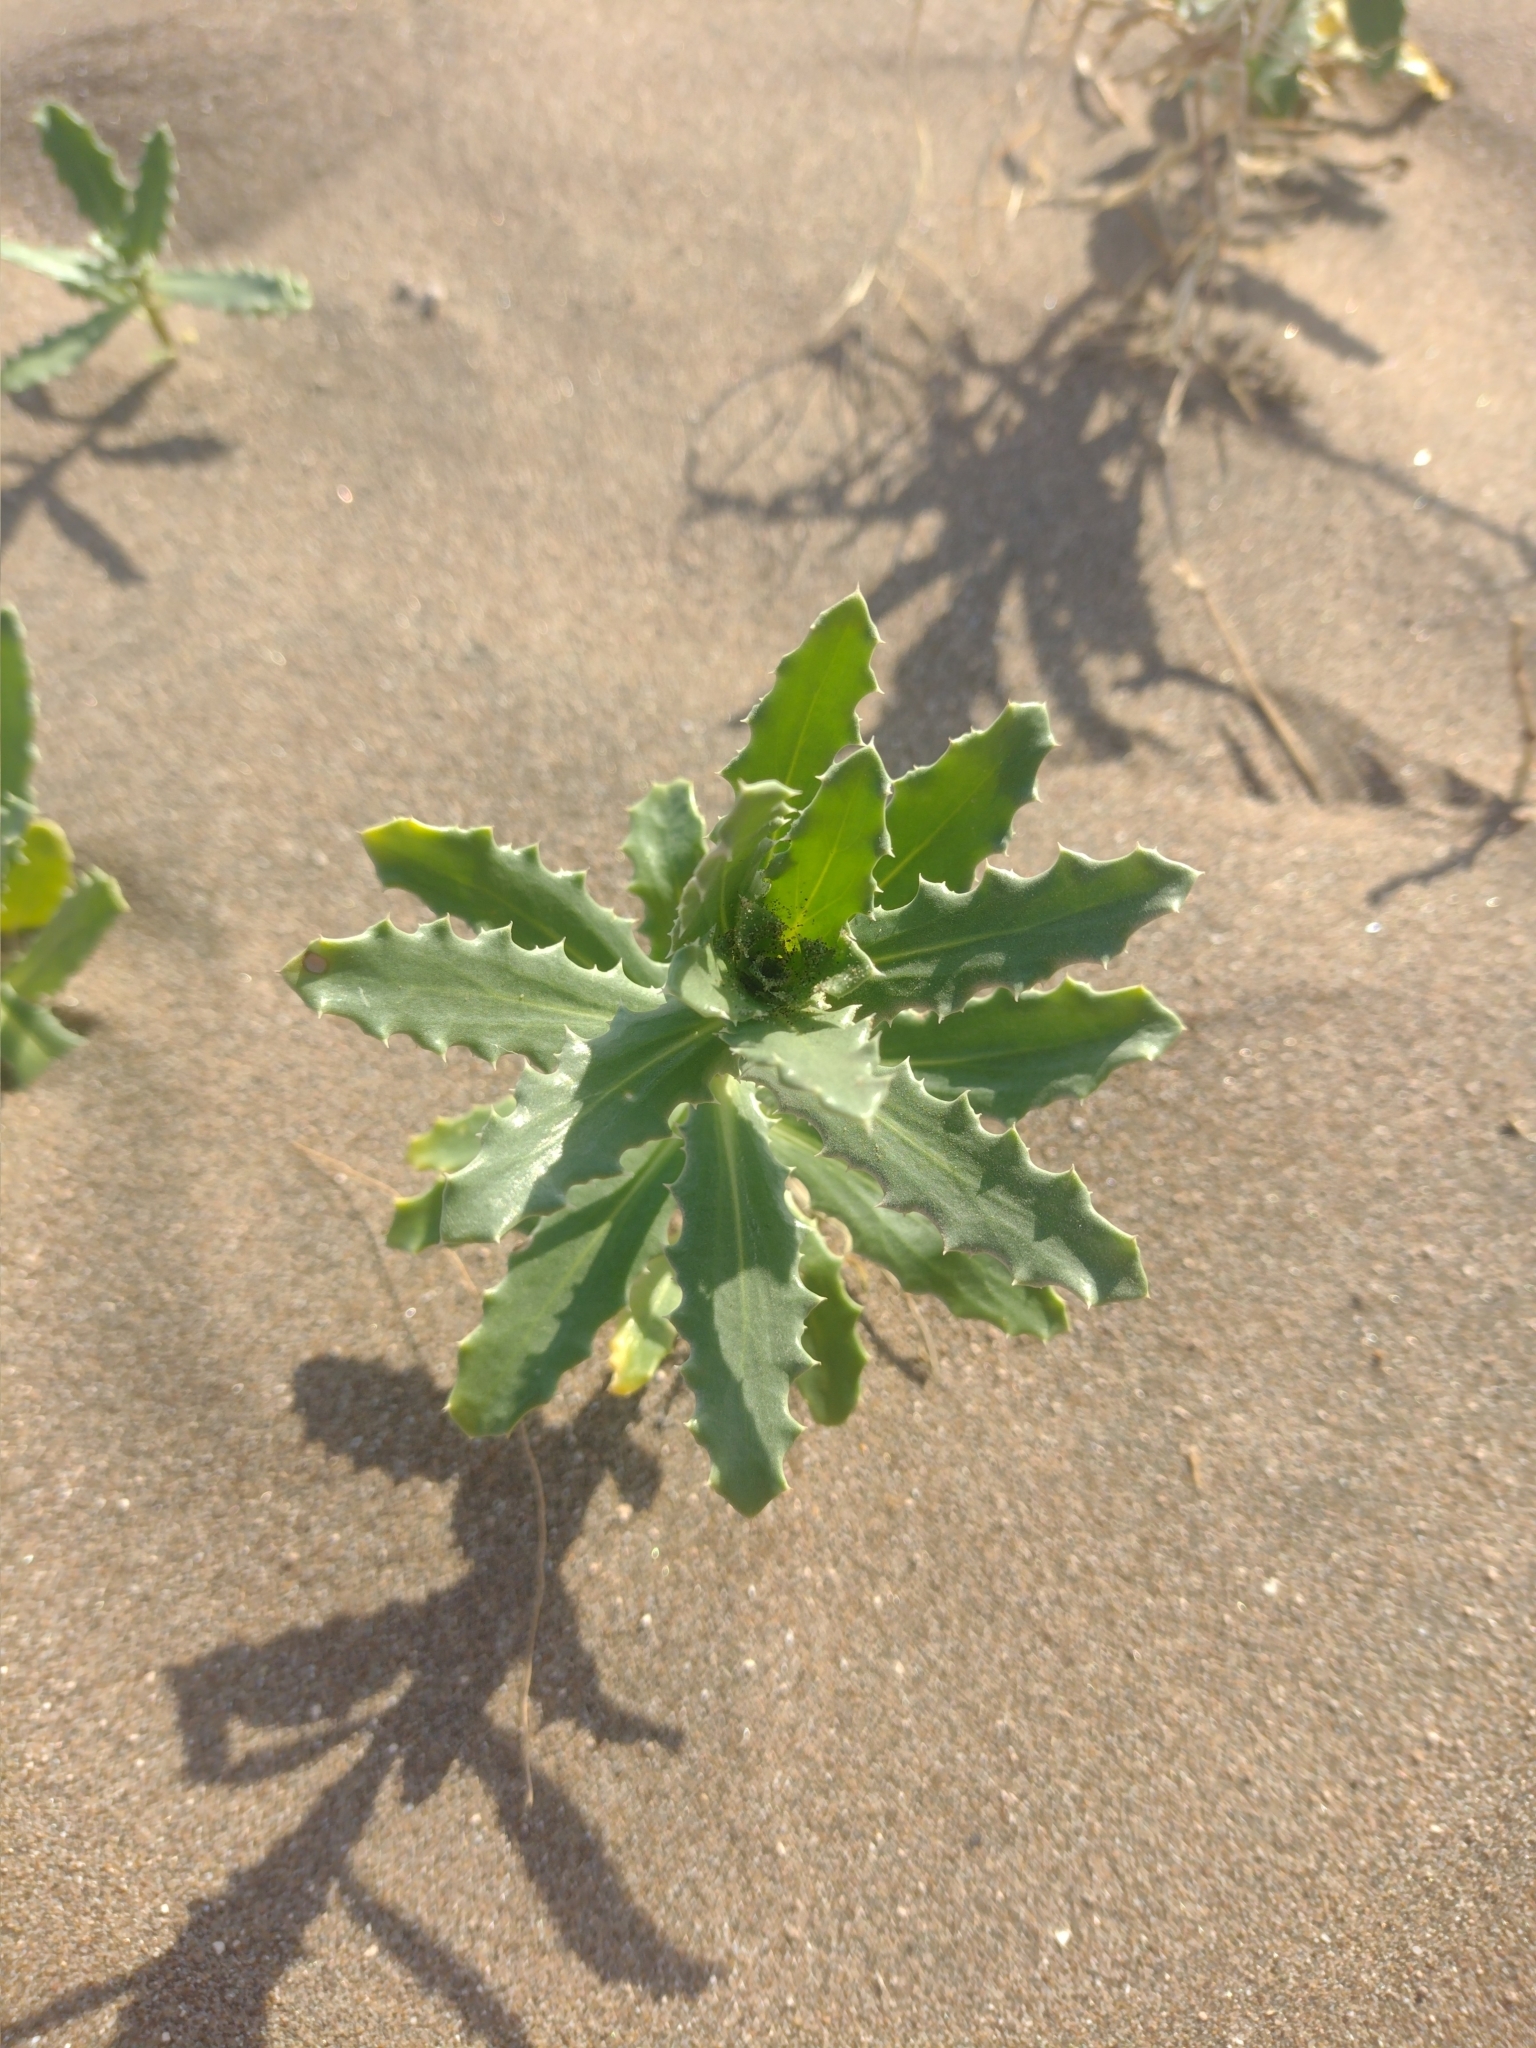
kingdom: Plantae
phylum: Tracheophyta
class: Magnoliopsida
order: Asterales
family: Calyceraceae
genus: Calycera
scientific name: Calycera crassifolia
